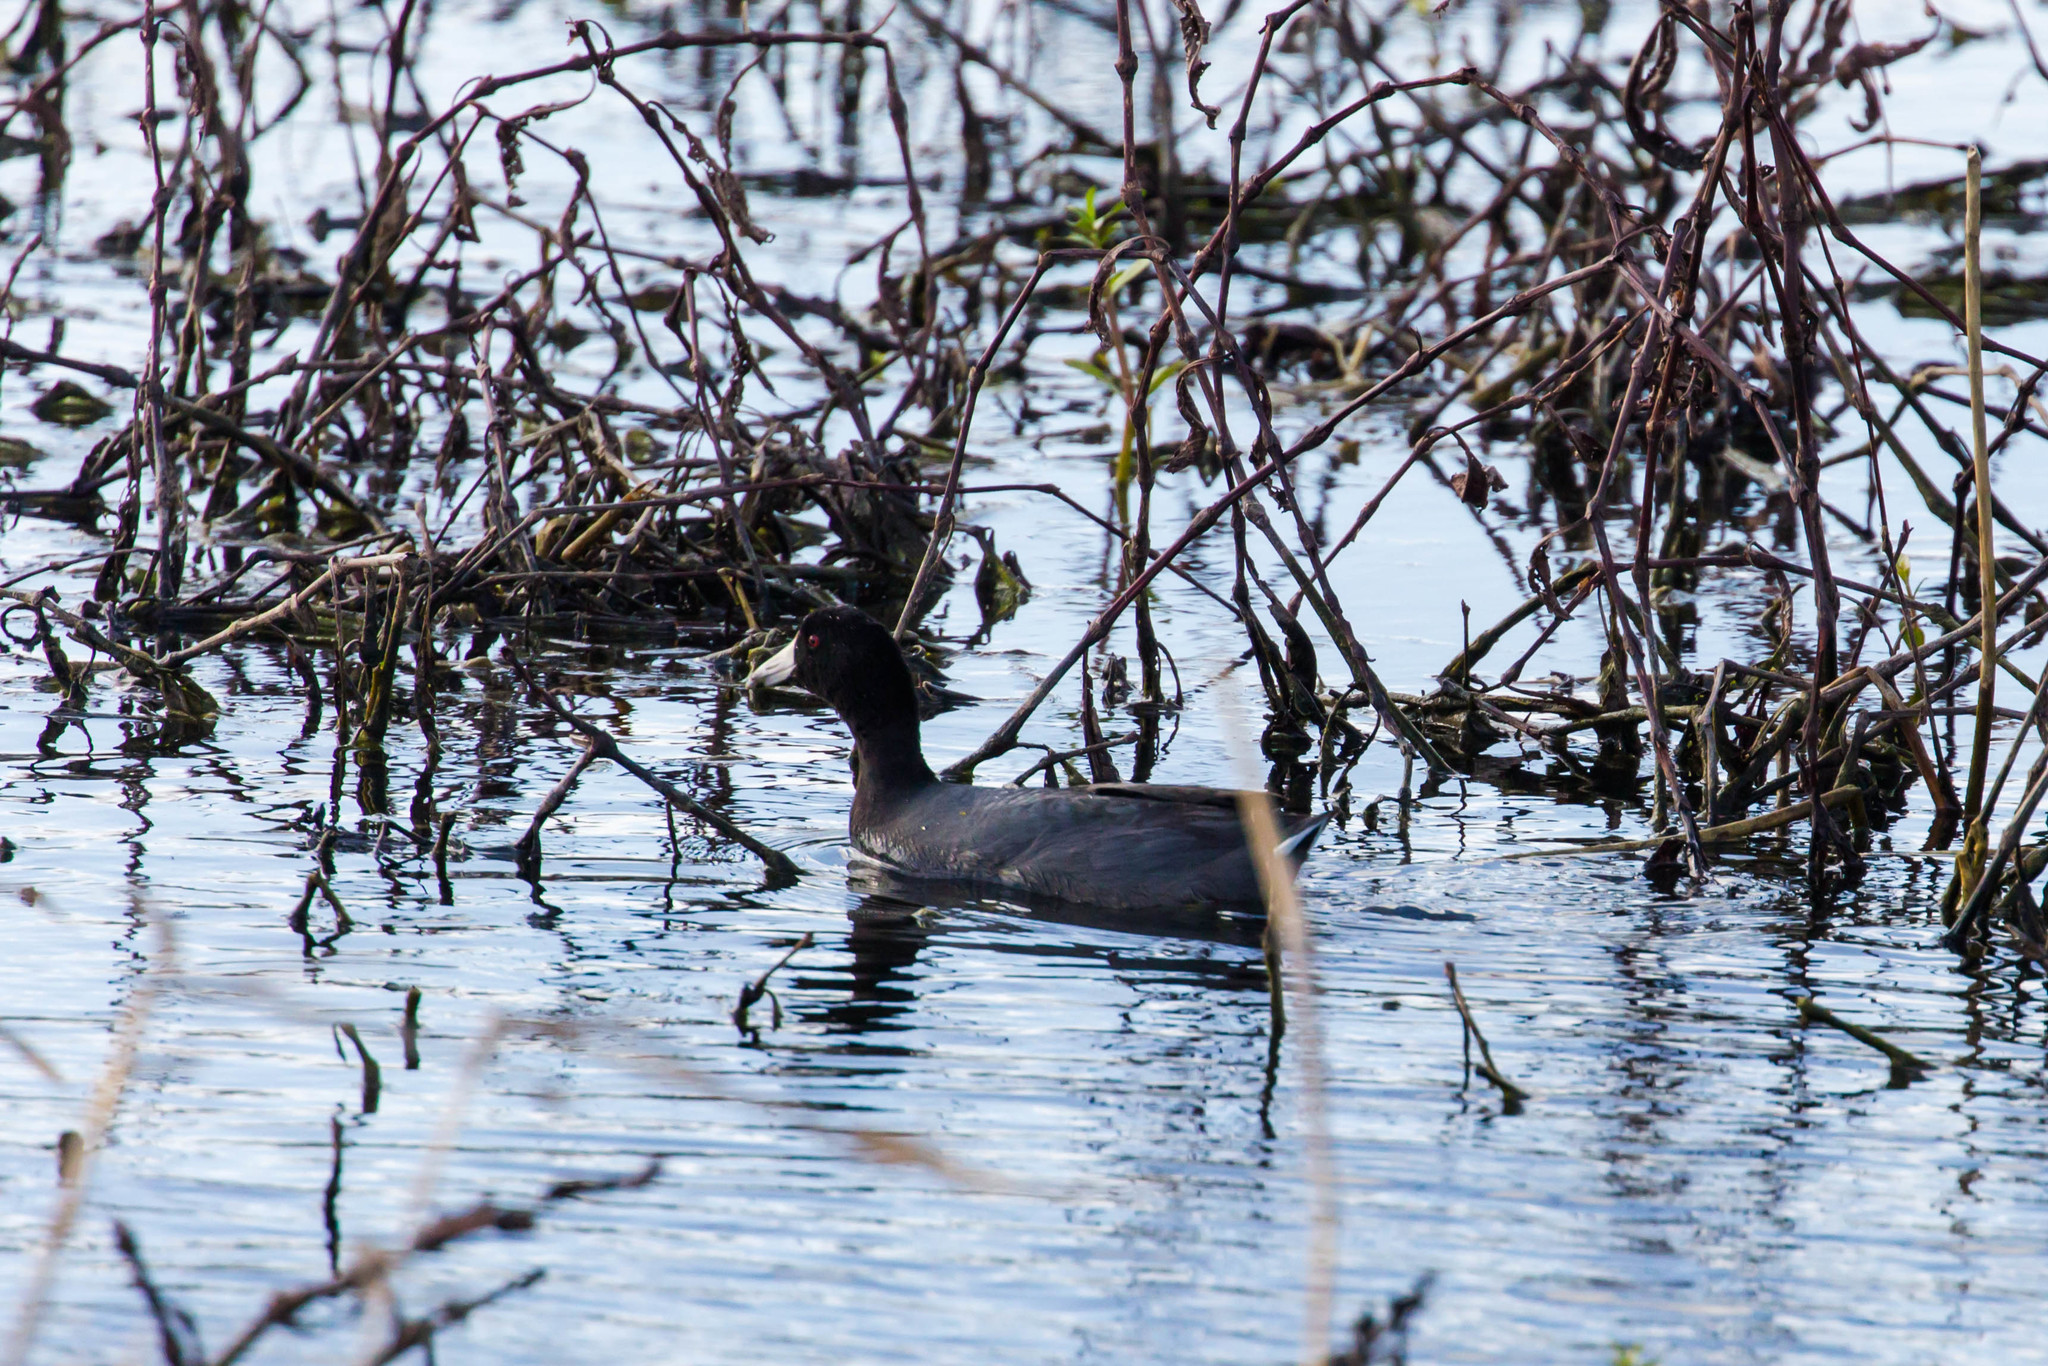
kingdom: Animalia
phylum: Chordata
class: Aves
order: Gruiformes
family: Rallidae
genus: Fulica
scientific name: Fulica americana
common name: American coot
